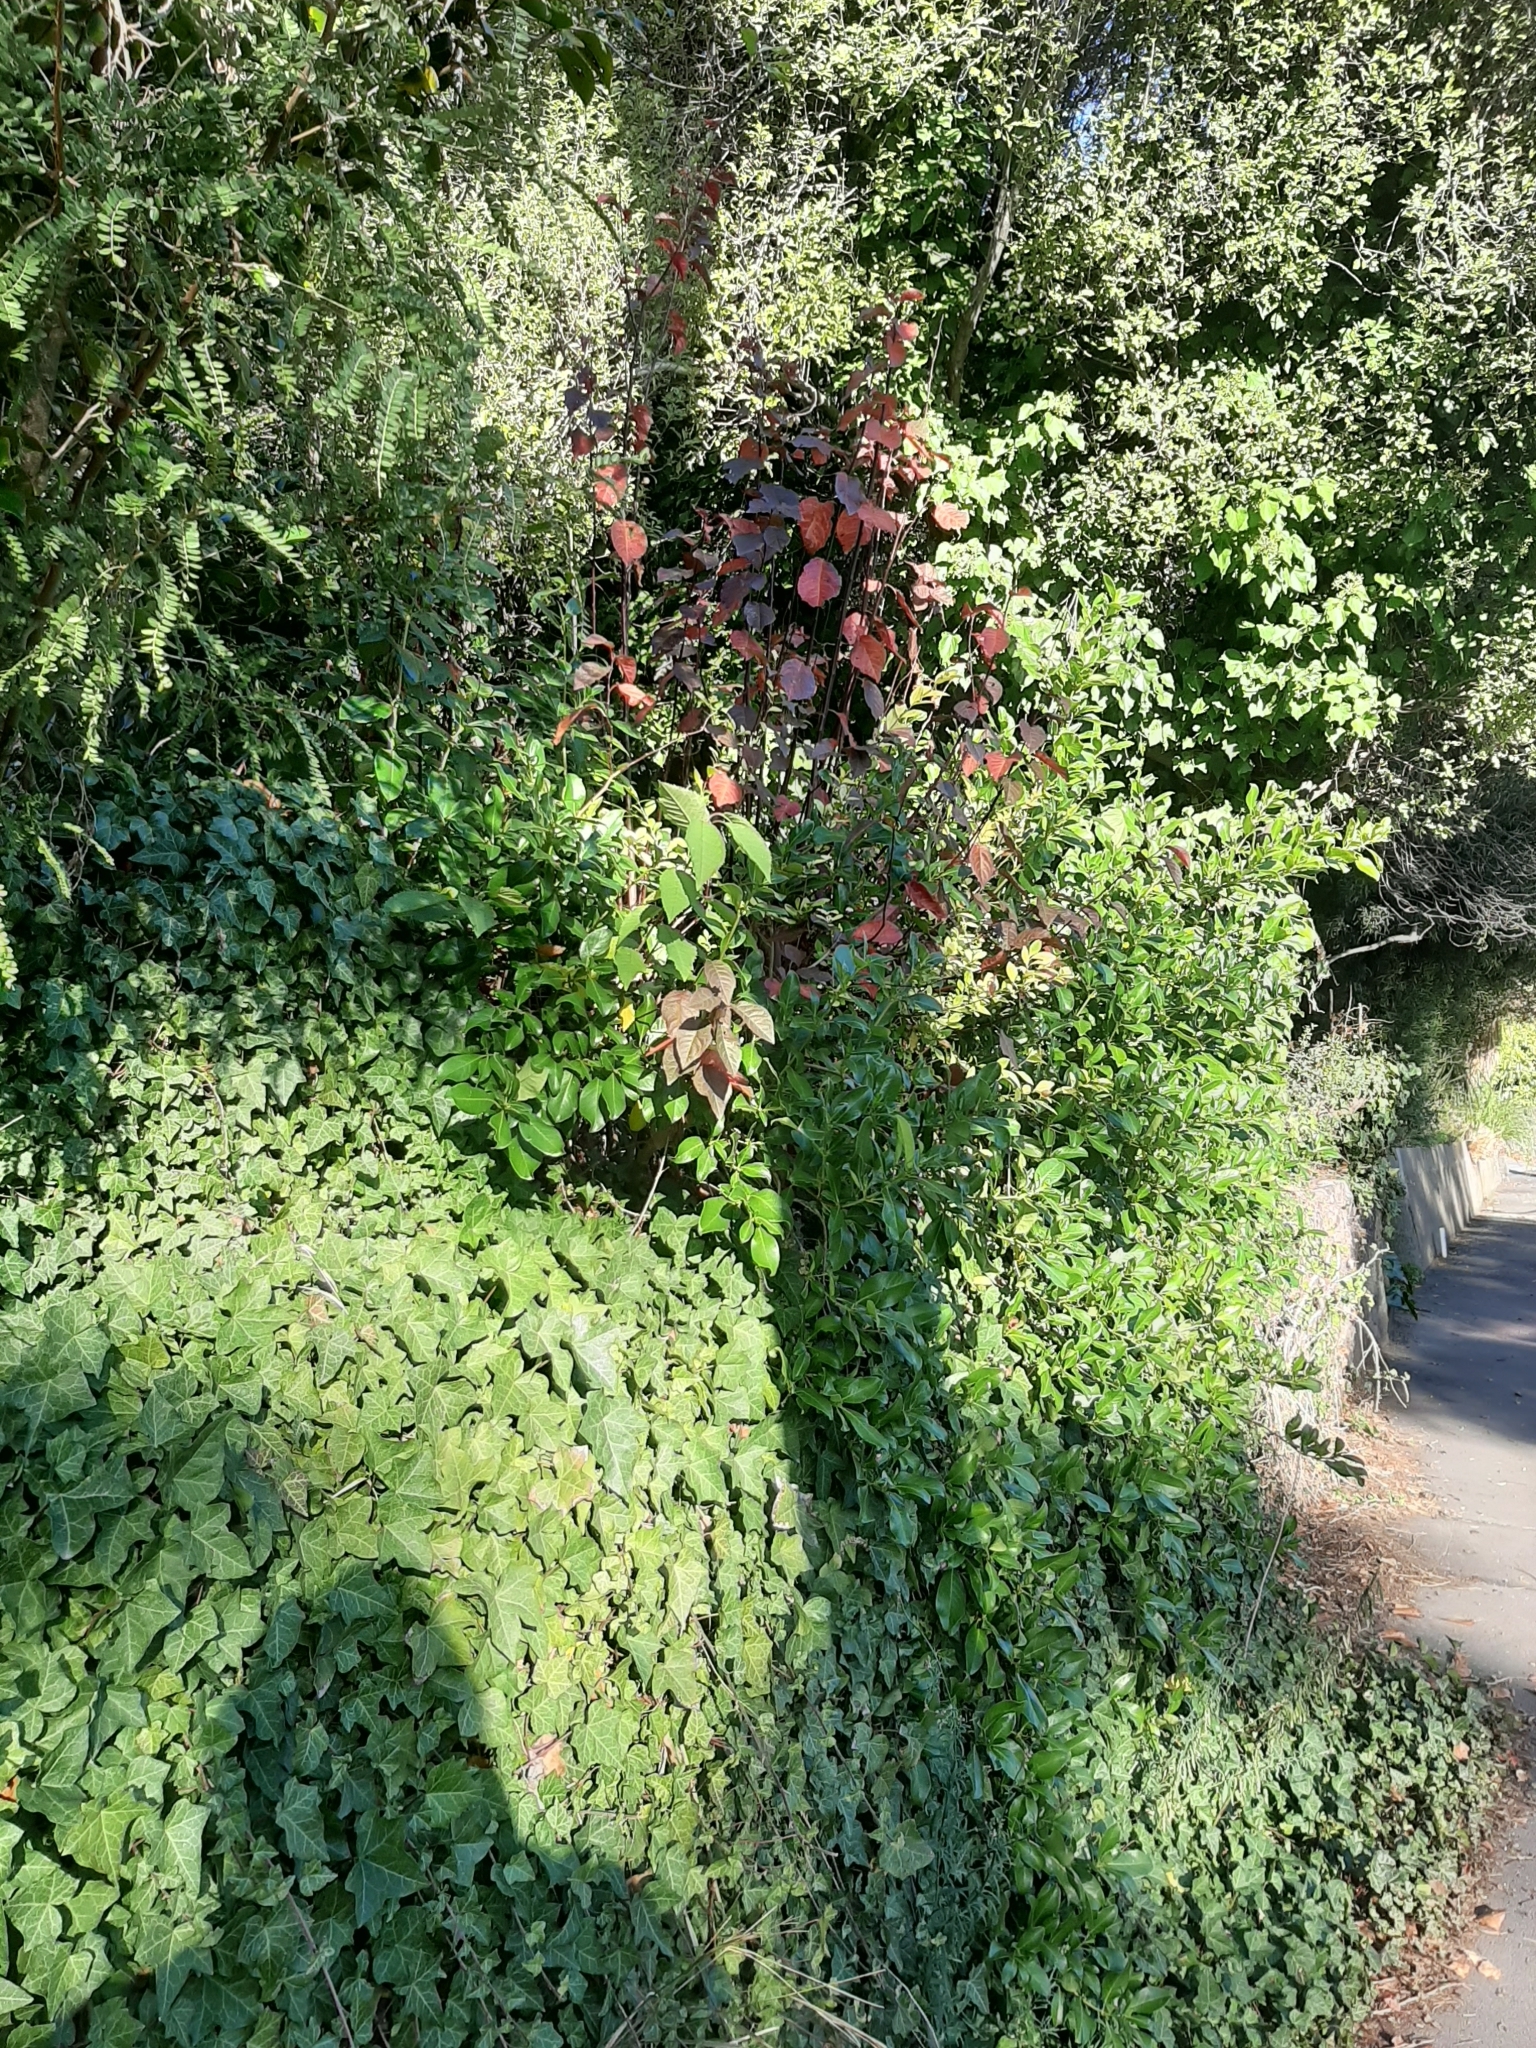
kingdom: Plantae
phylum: Tracheophyta
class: Magnoliopsida
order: Apiales
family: Araliaceae
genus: Hedera
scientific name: Hedera helix
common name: Ivy
